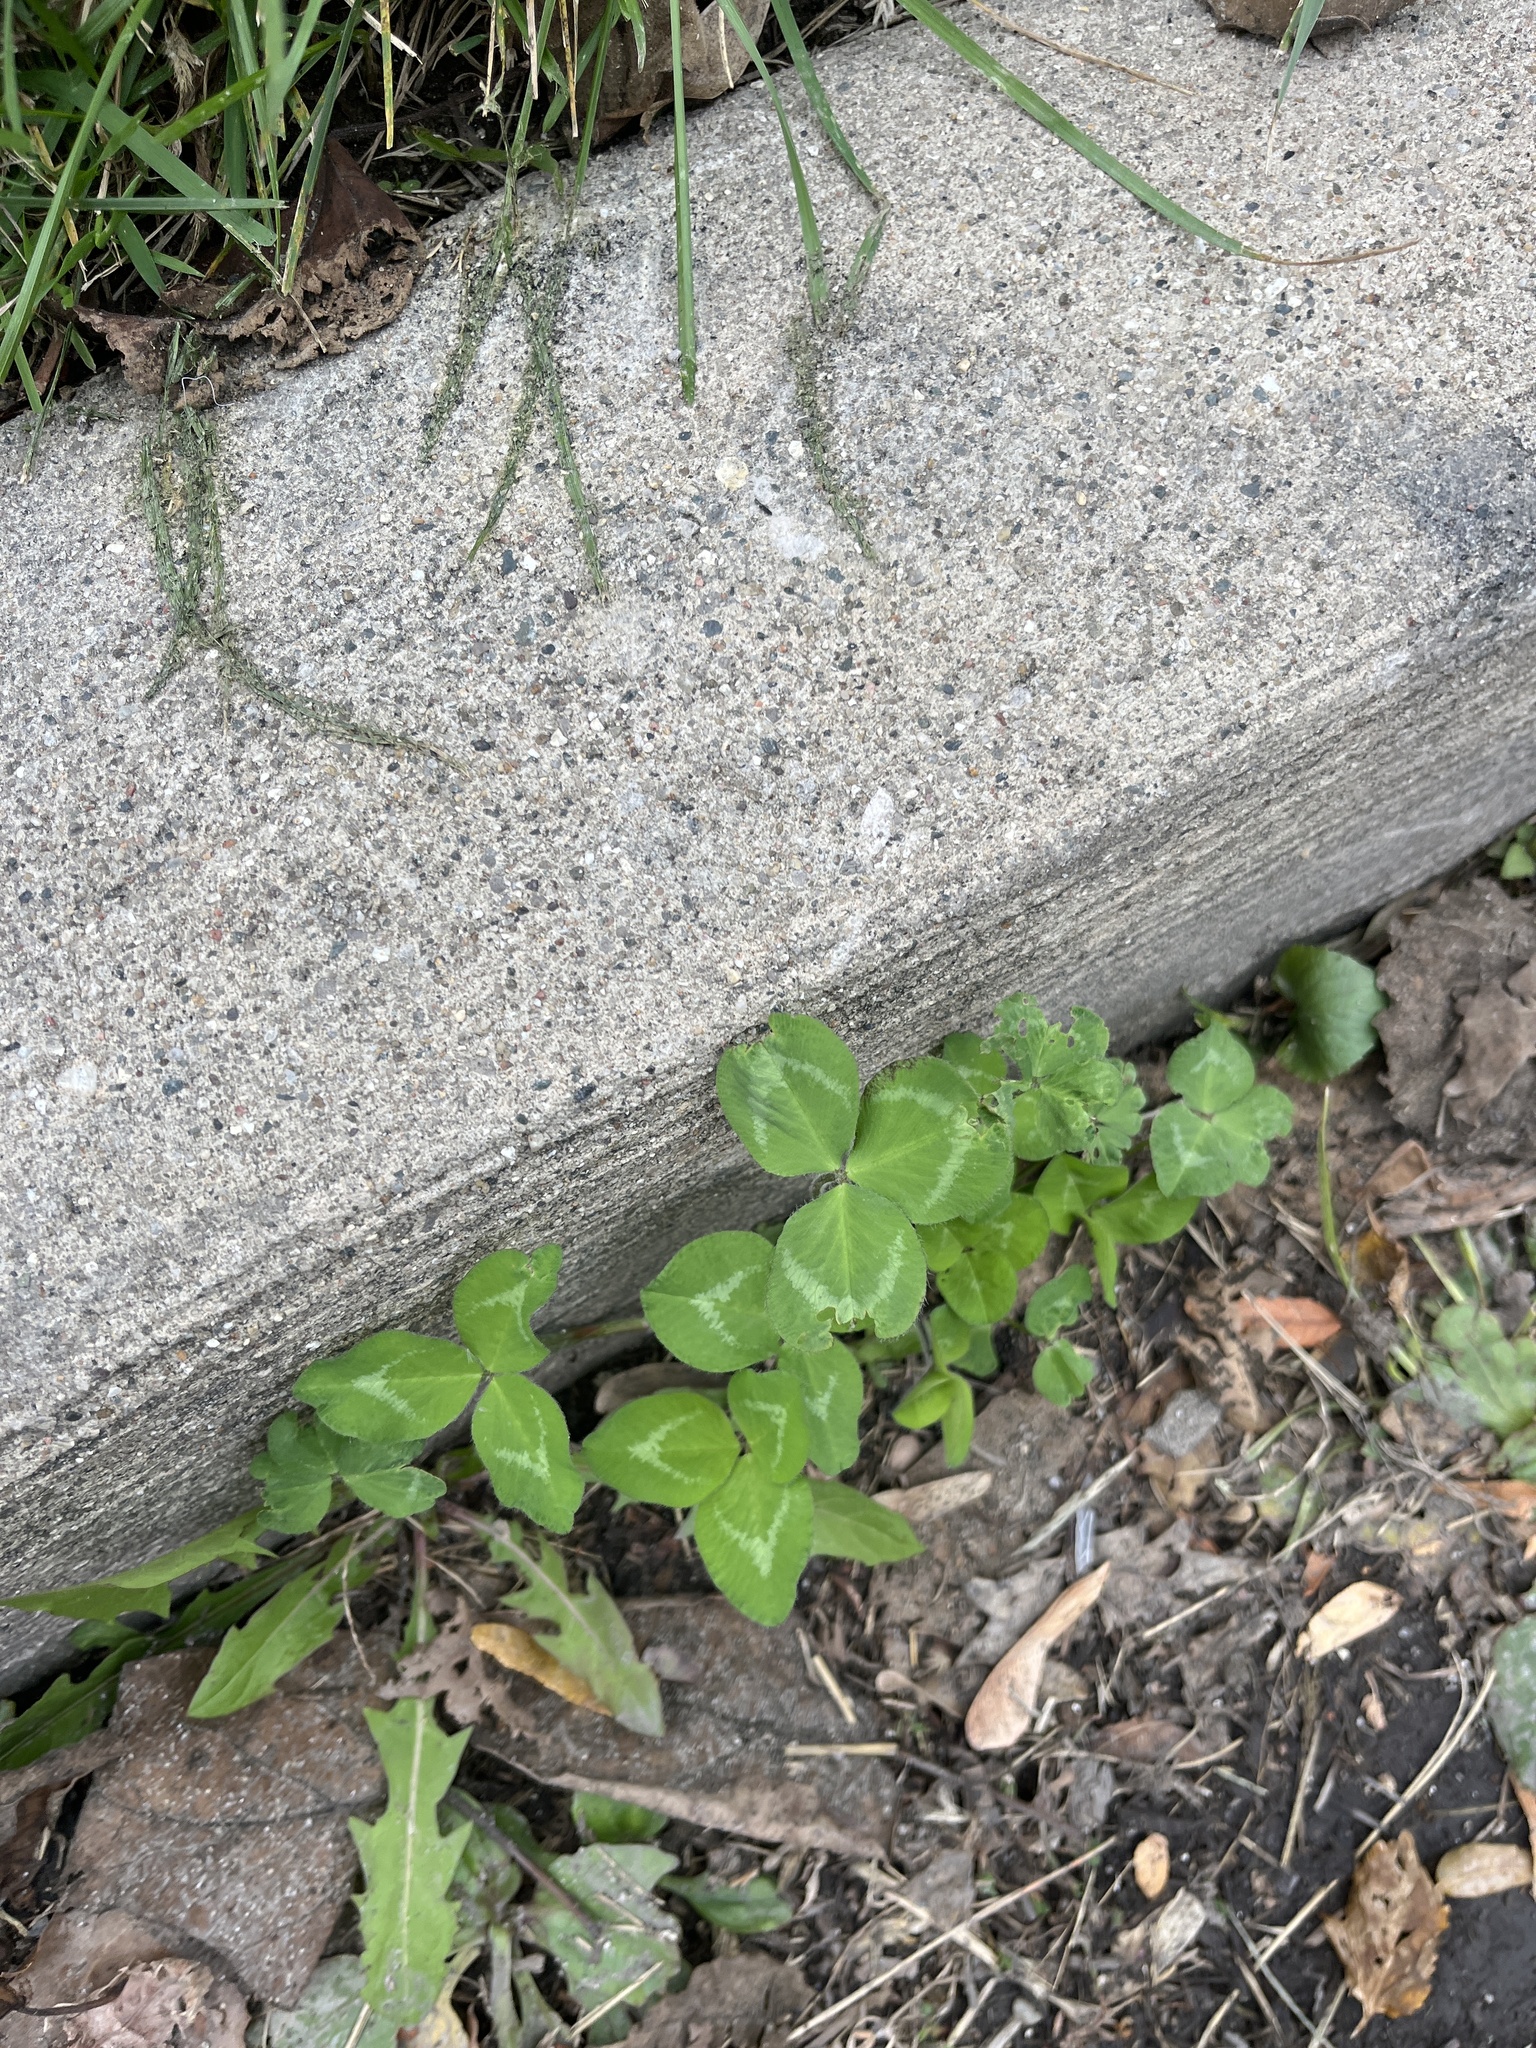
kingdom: Plantae
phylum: Tracheophyta
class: Magnoliopsida
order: Fabales
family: Fabaceae
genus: Trifolium
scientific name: Trifolium repens
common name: White clover
